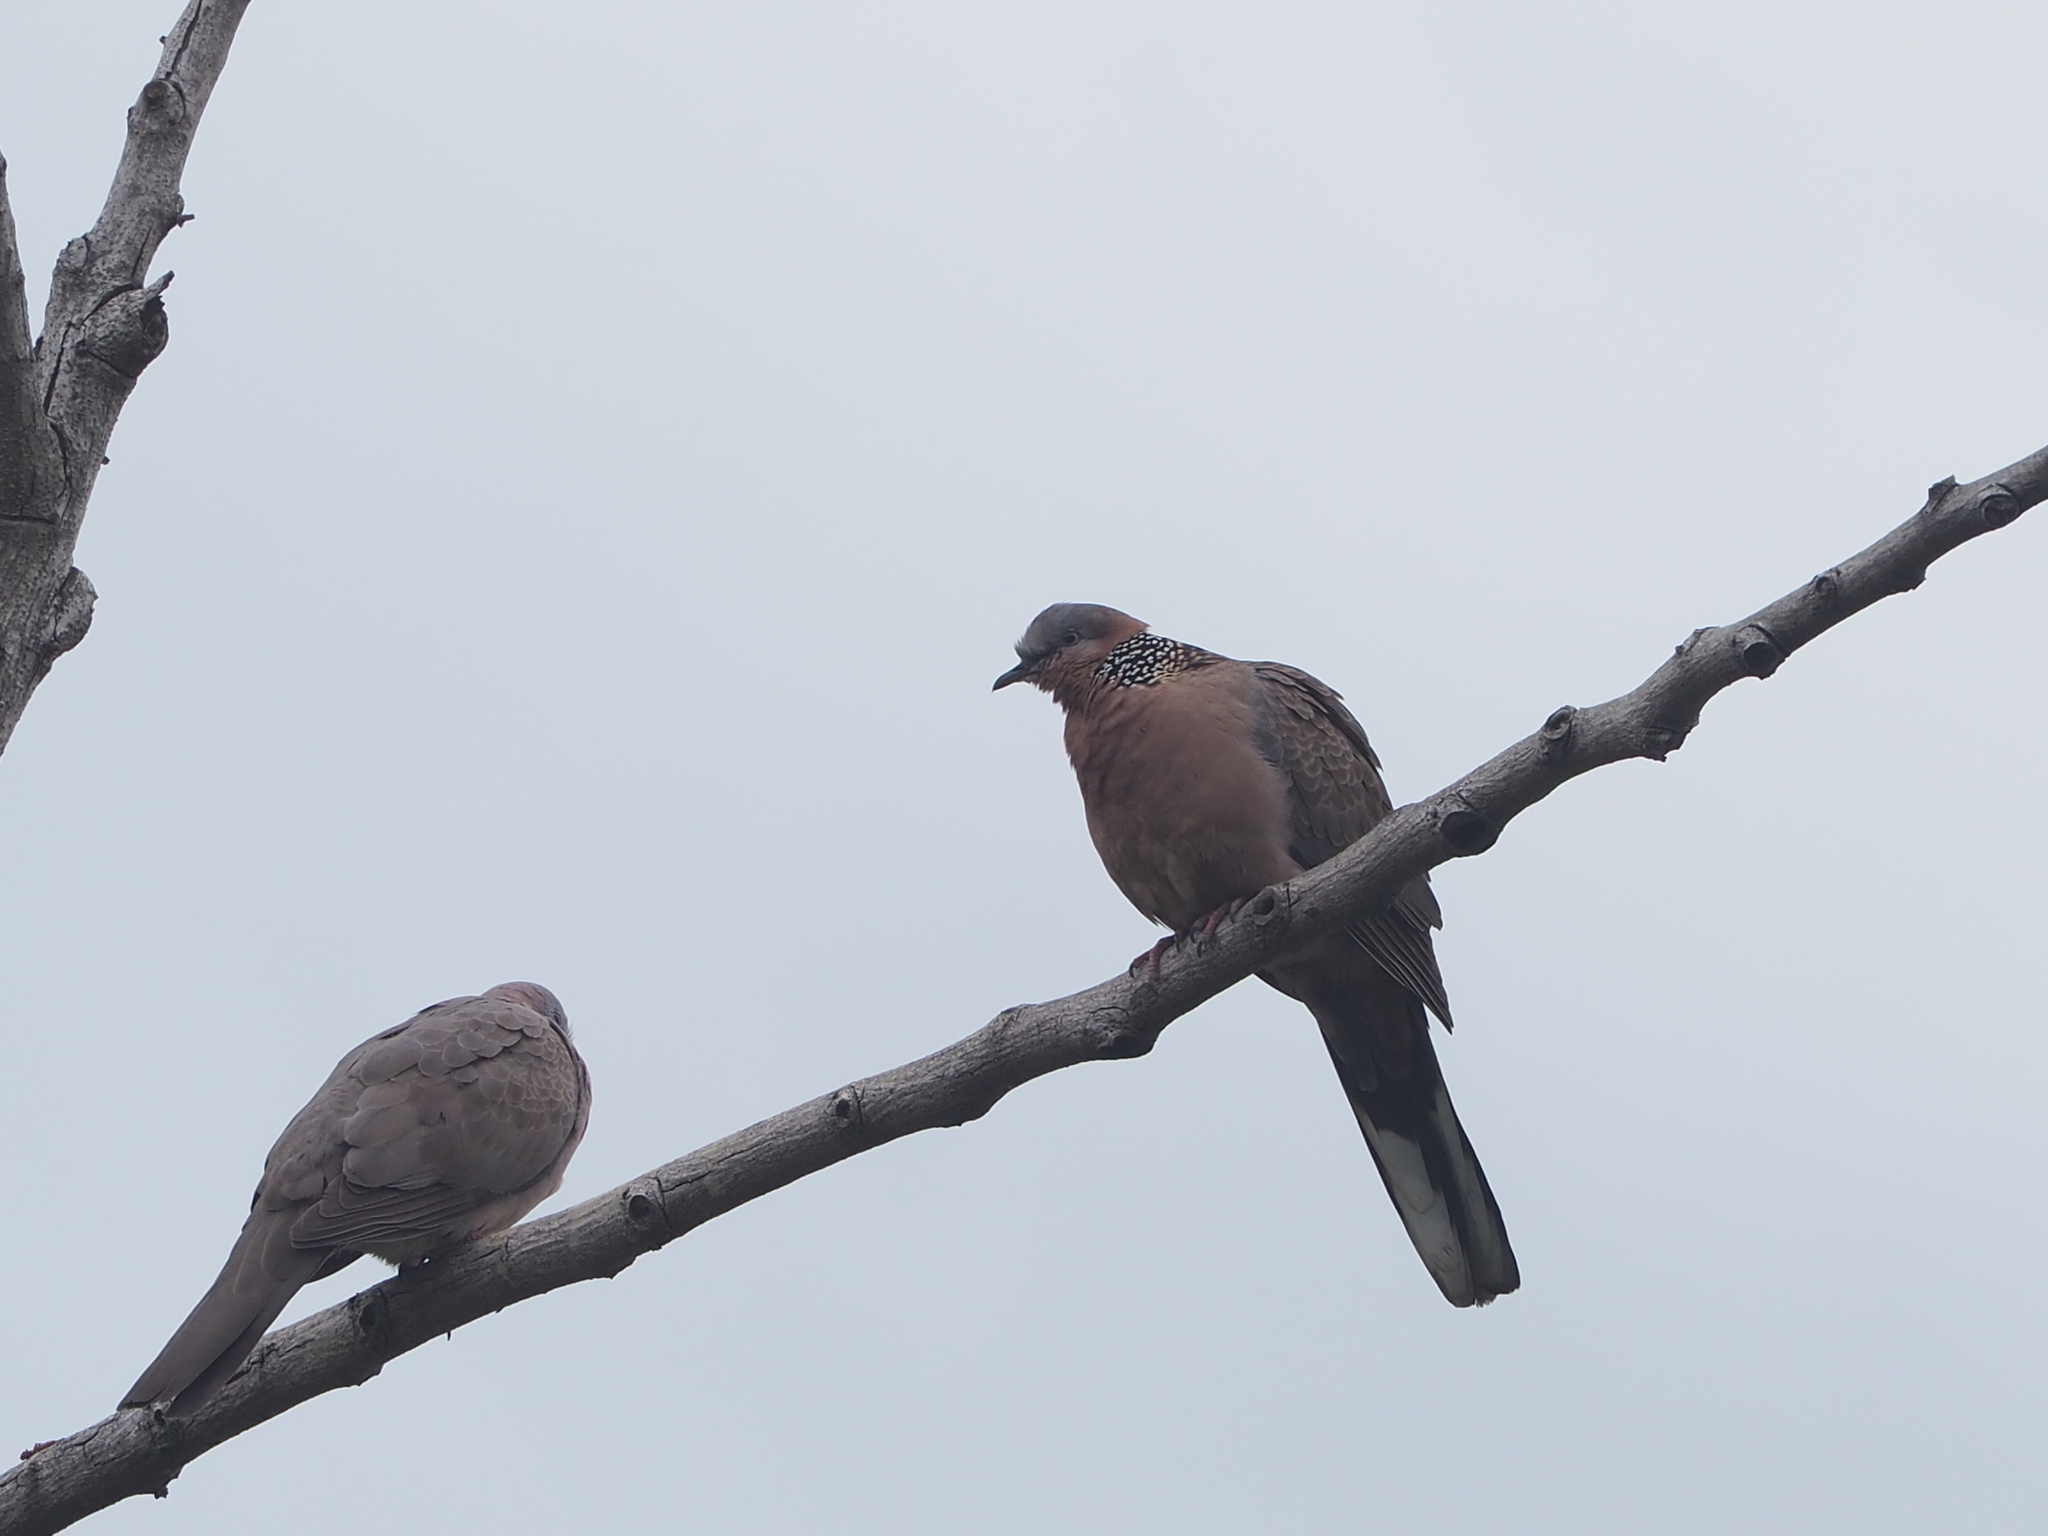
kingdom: Animalia
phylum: Chordata
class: Aves
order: Columbiformes
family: Columbidae
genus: Spilopelia
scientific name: Spilopelia chinensis
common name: Spotted dove
